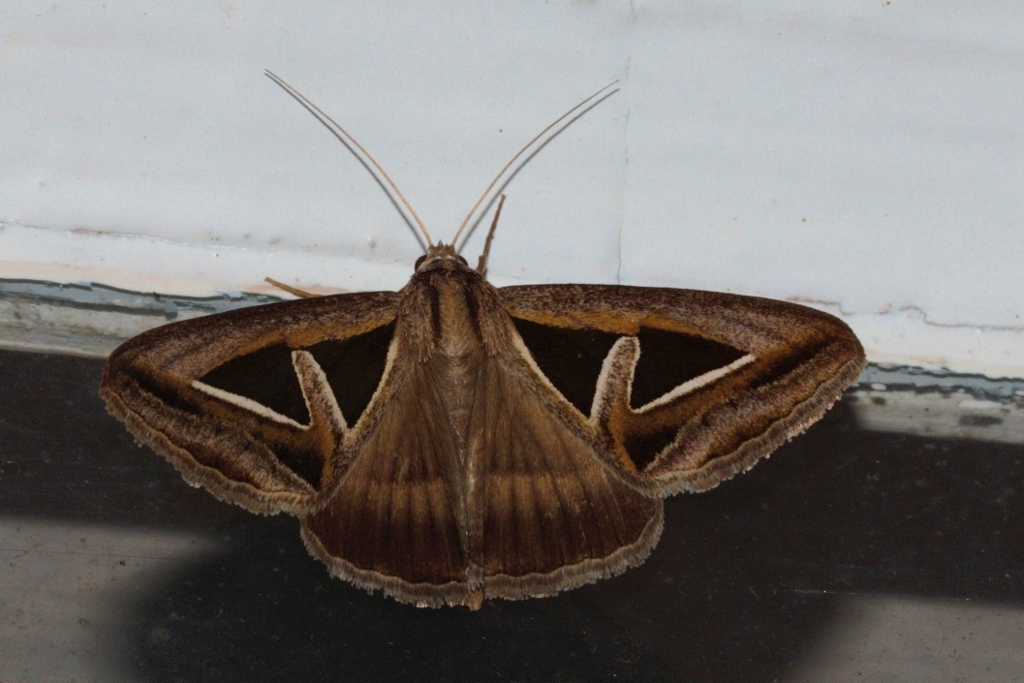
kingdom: Animalia
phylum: Arthropoda
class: Insecta
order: Lepidoptera
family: Erebidae
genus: Trigonodes
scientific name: Trigonodes hyppasia
